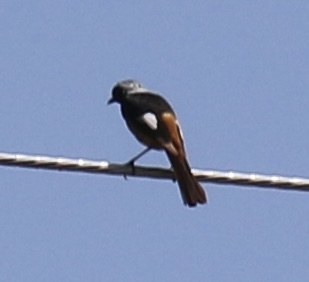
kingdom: Animalia
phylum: Chordata
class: Aves
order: Passeriformes
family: Muscicapidae
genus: Phoenicurus
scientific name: Phoenicurus auroreus
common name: Daurian redstart
